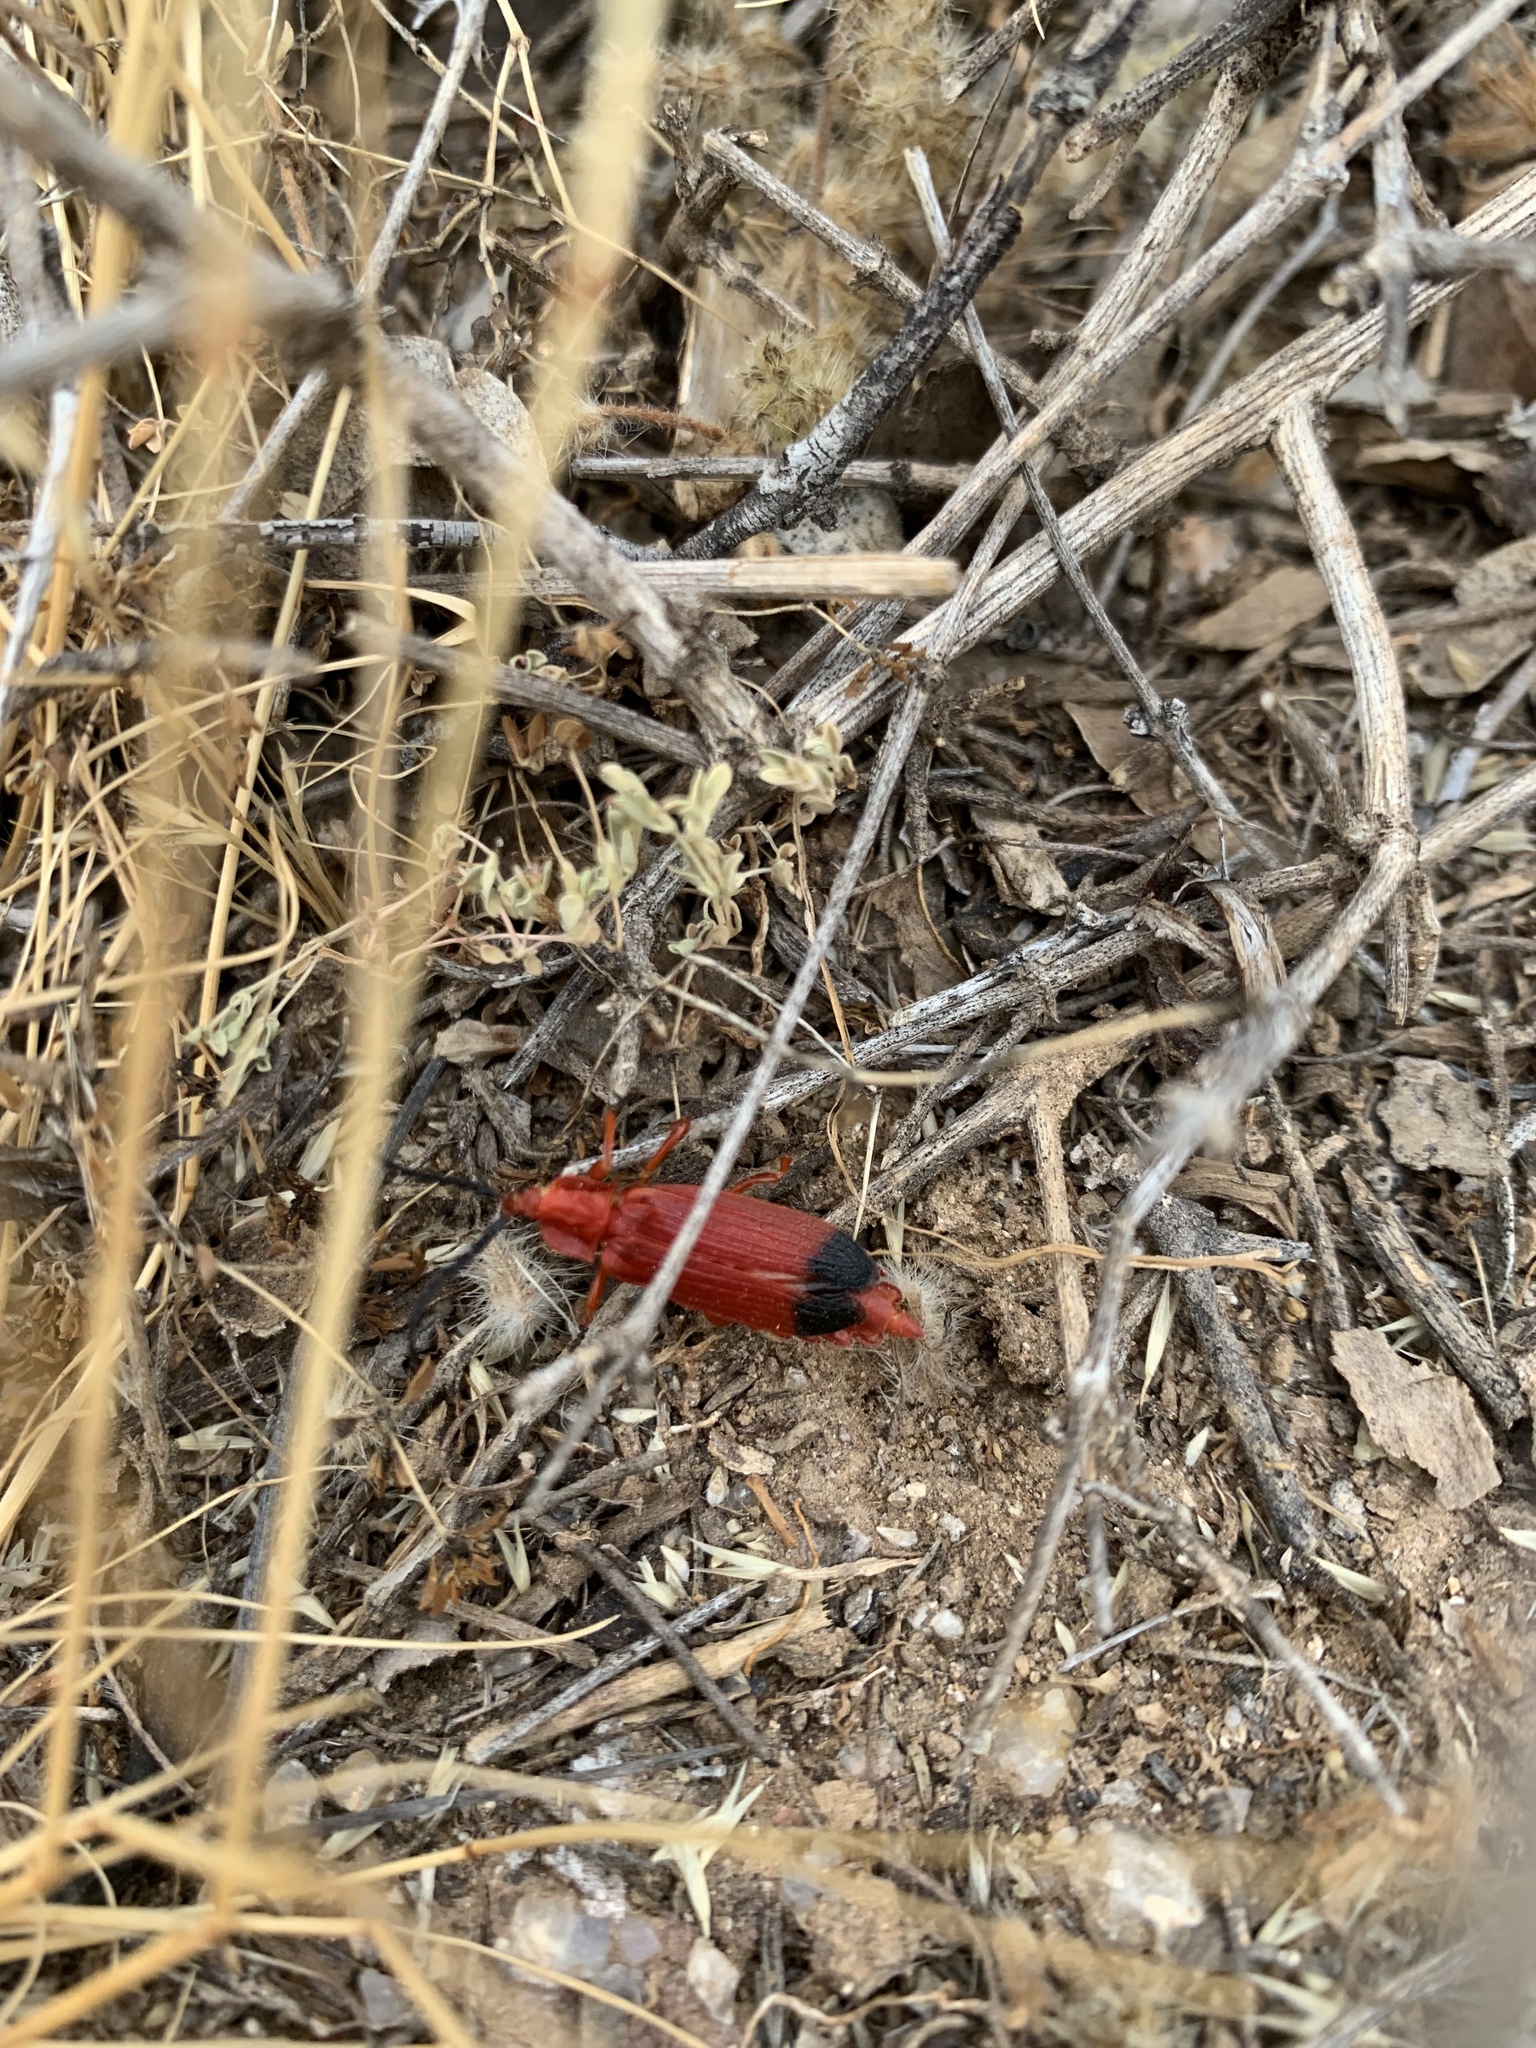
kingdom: Animalia
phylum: Arthropoda
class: Insecta
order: Coleoptera
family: Lycidae
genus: Lycus
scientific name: Lycus sanguineus
